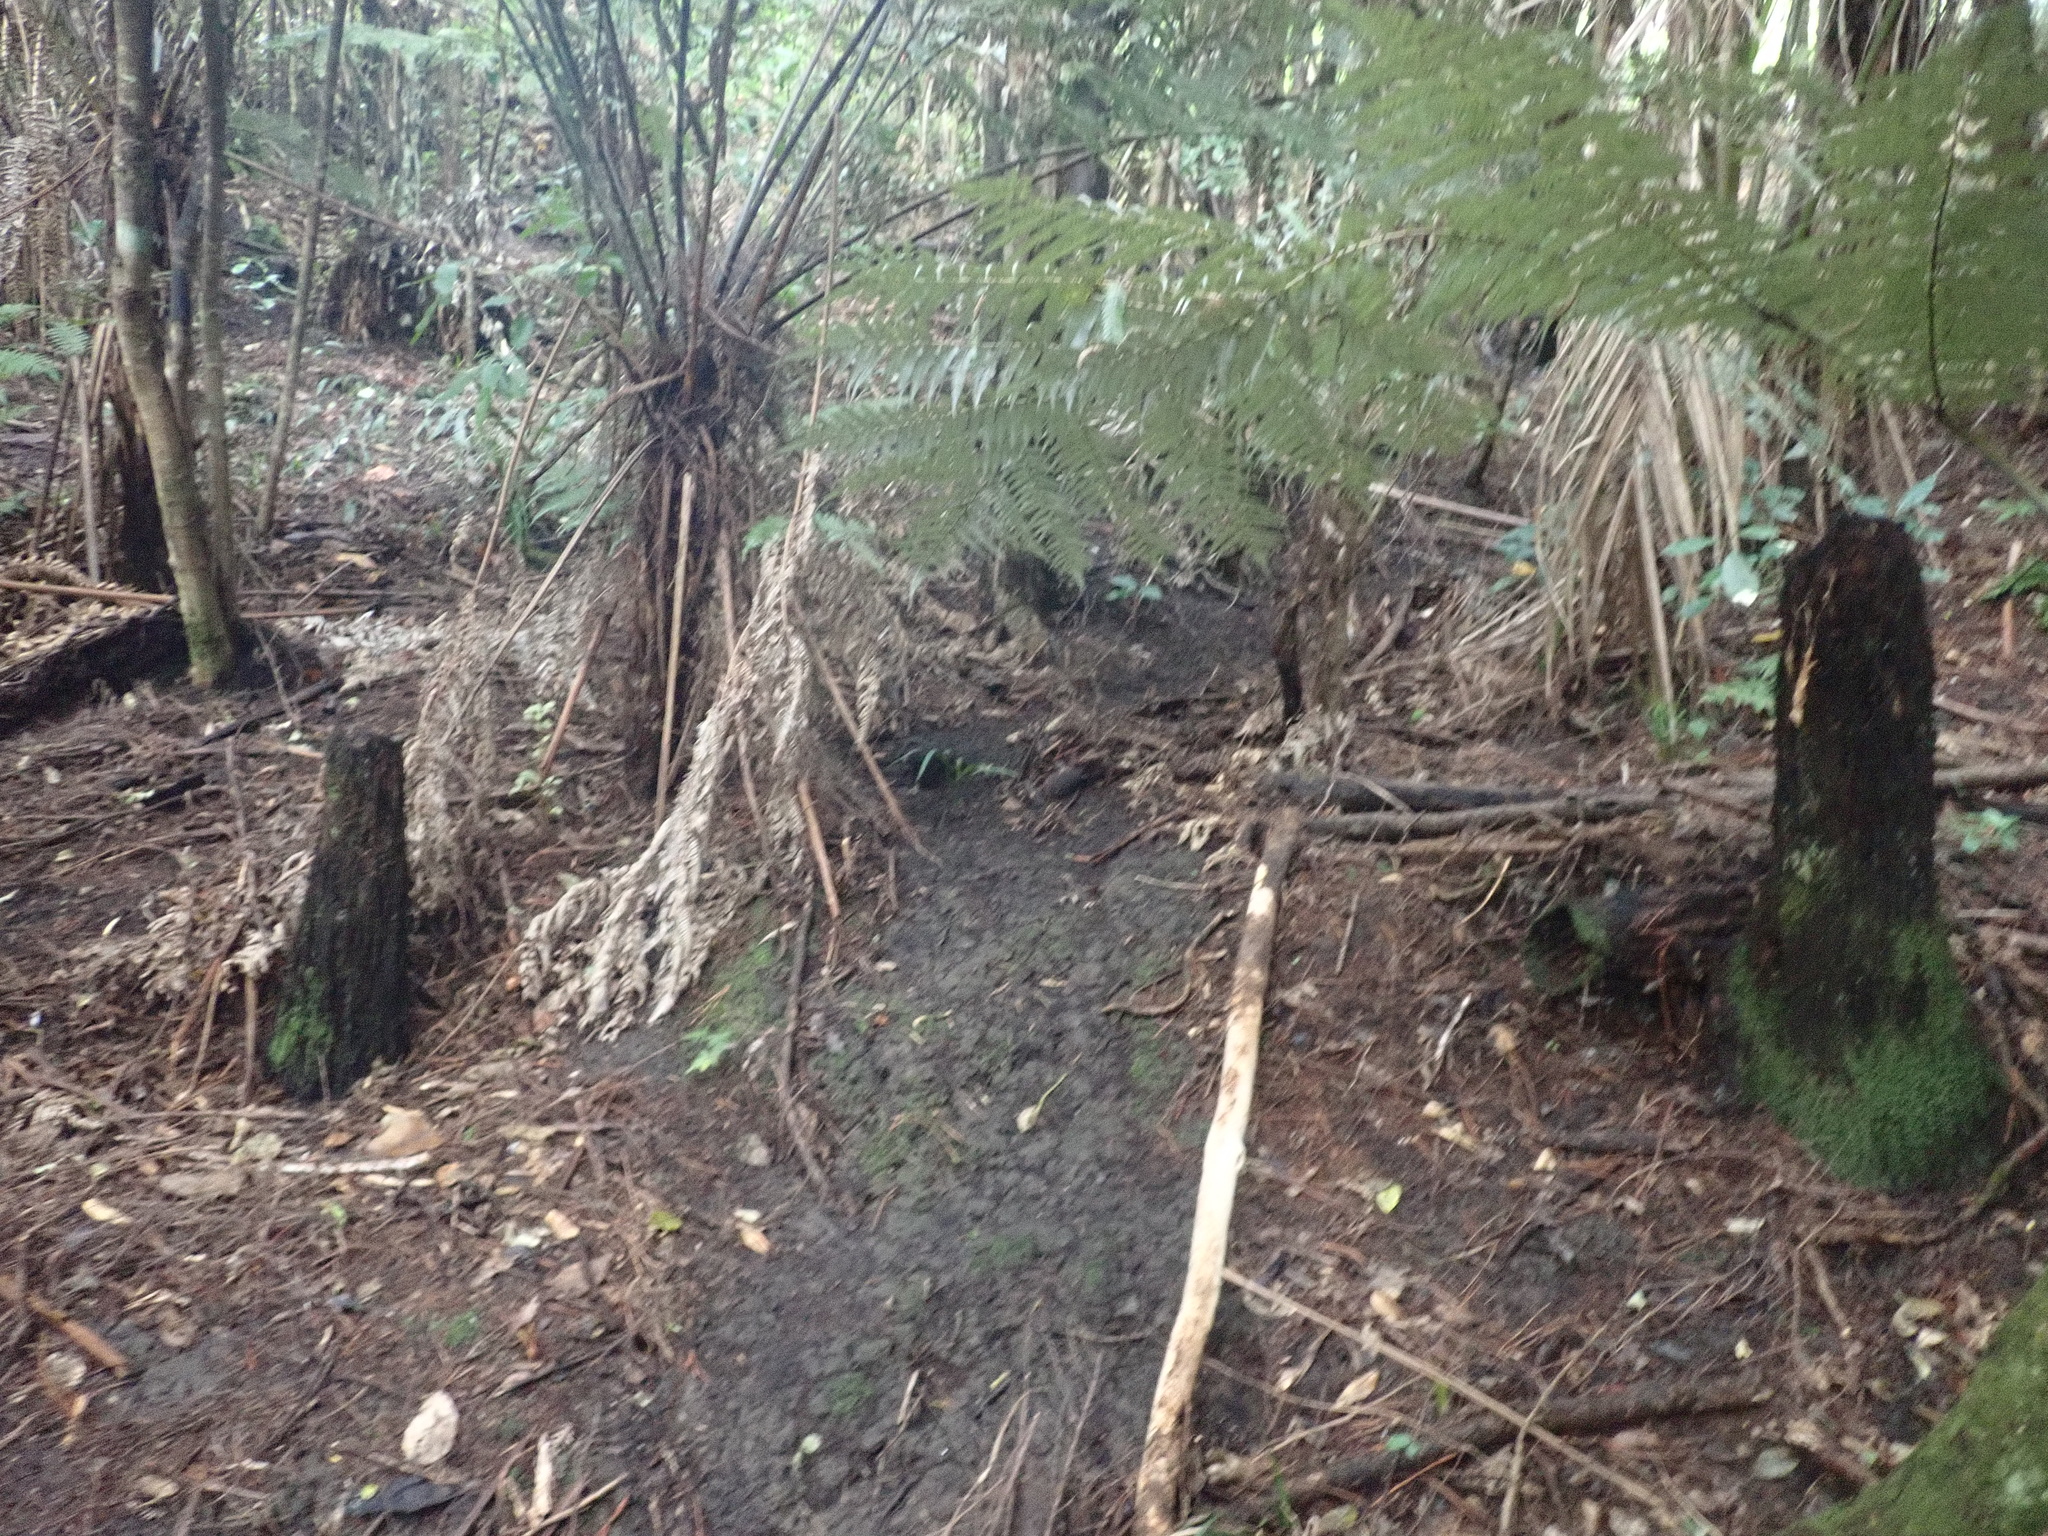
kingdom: Plantae
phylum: Tracheophyta
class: Polypodiopsida
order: Cyatheales
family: Cyatheaceae
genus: Alsophila
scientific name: Alsophila dealbata
